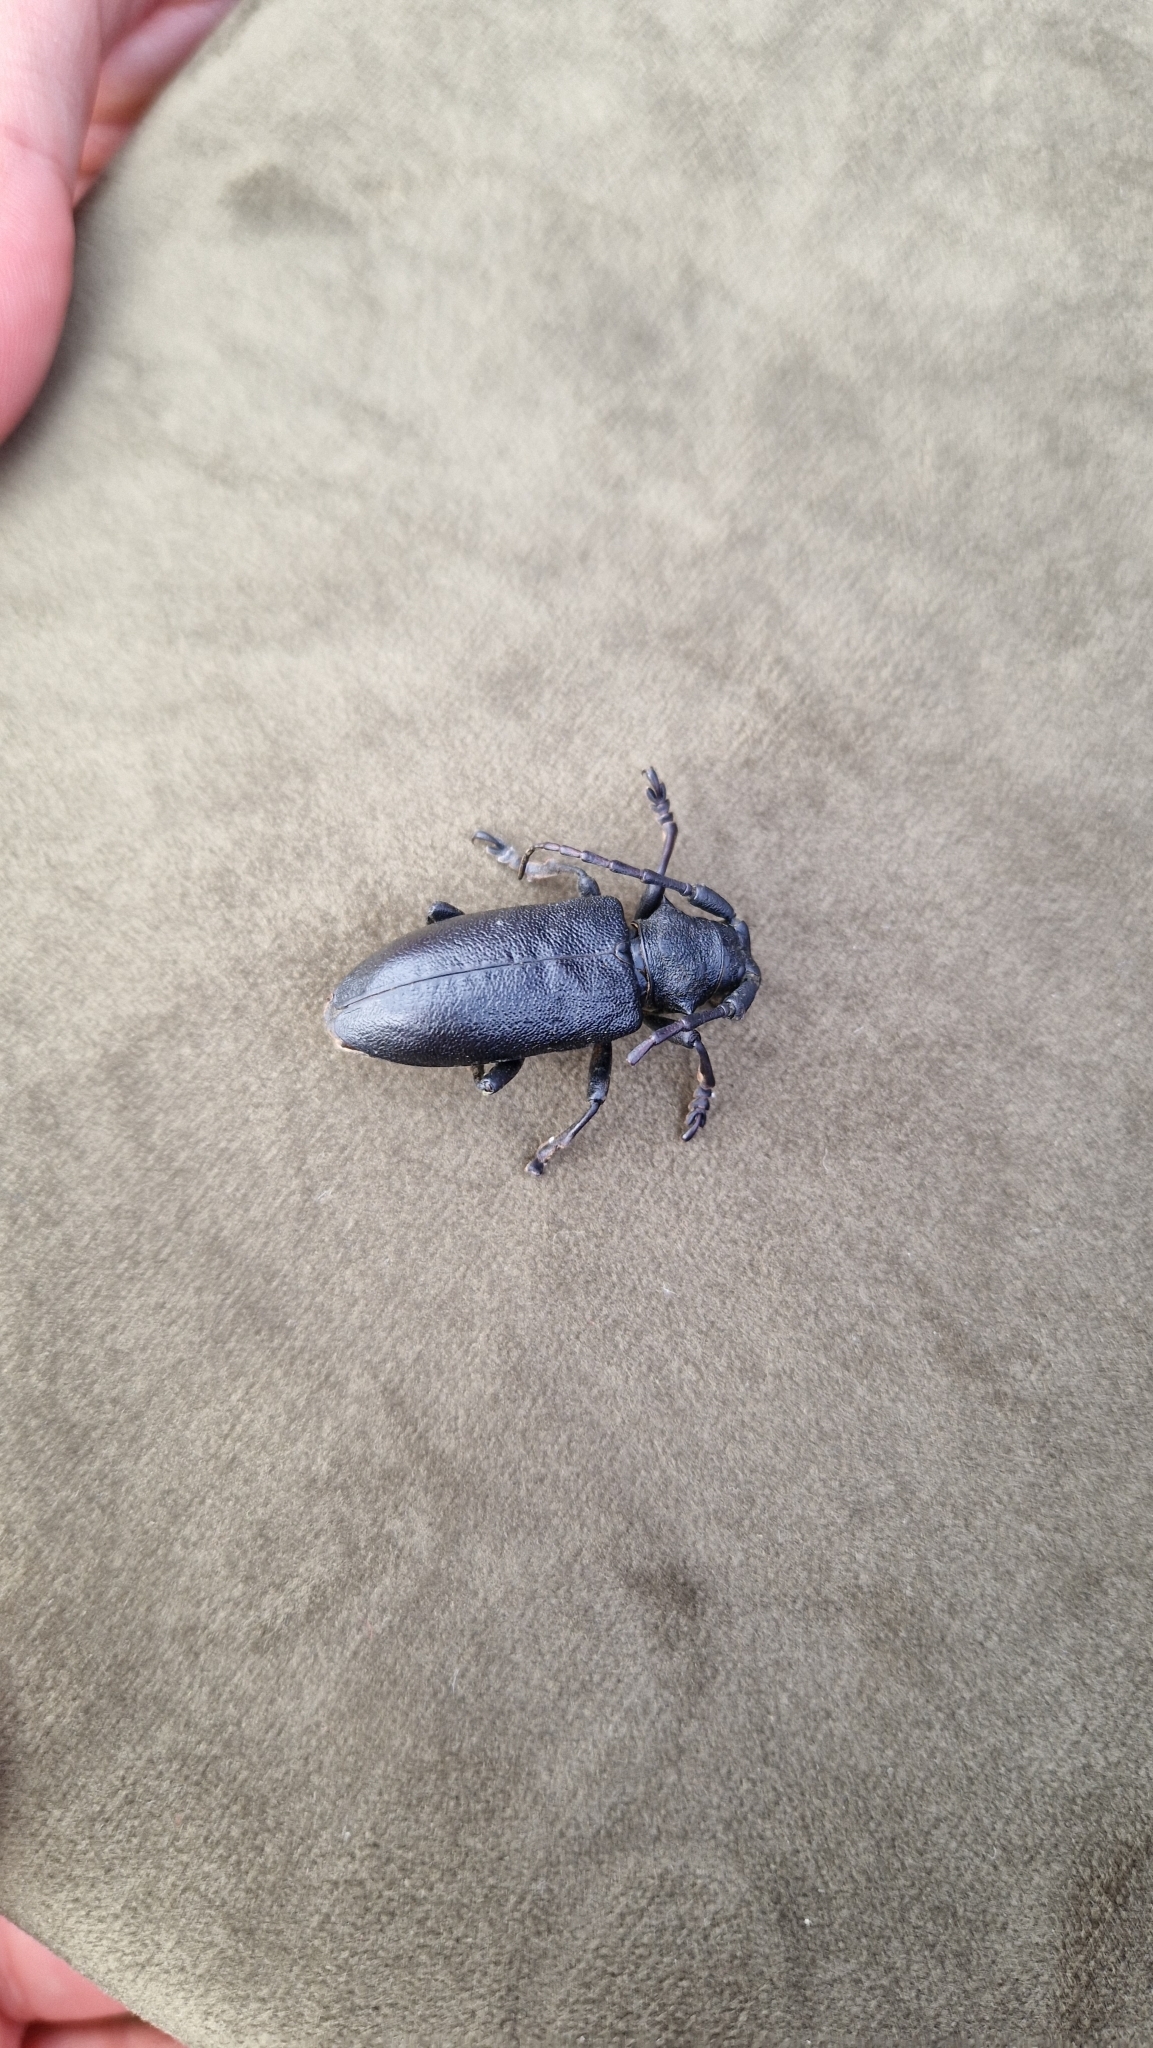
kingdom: Animalia
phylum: Arthropoda
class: Insecta
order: Coleoptera
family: Cerambycidae
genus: Lamia
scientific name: Lamia textor
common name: Weaver beetle
